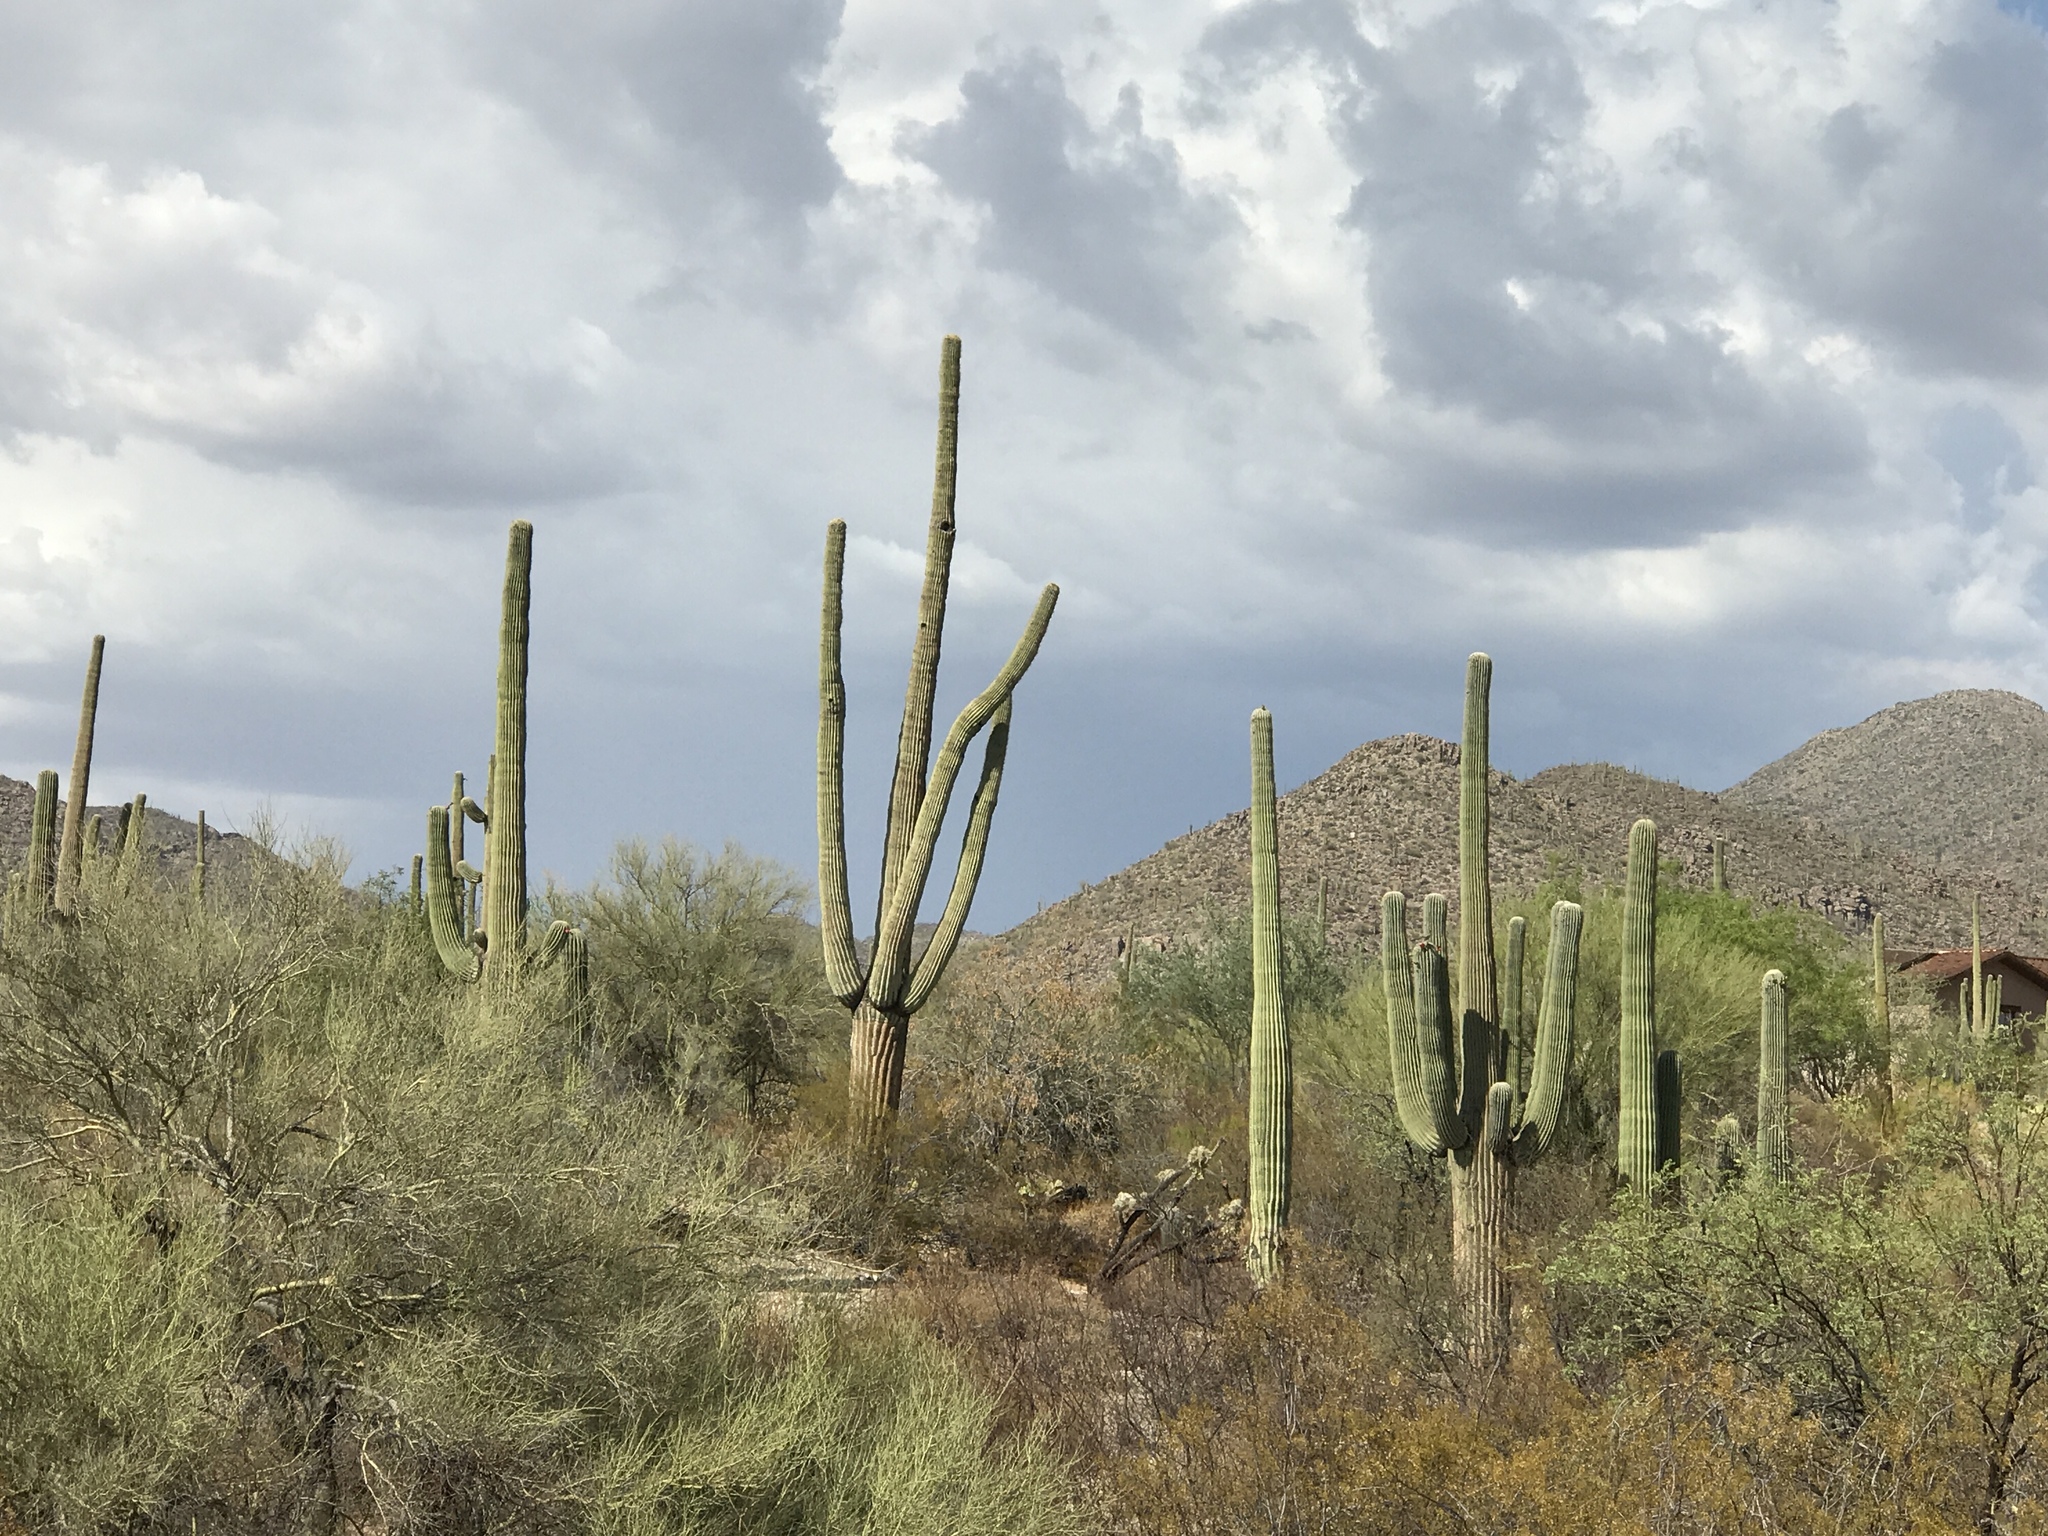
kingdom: Plantae
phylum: Tracheophyta
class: Magnoliopsida
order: Caryophyllales
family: Cactaceae
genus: Carnegiea
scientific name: Carnegiea gigantea
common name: Saguaro
